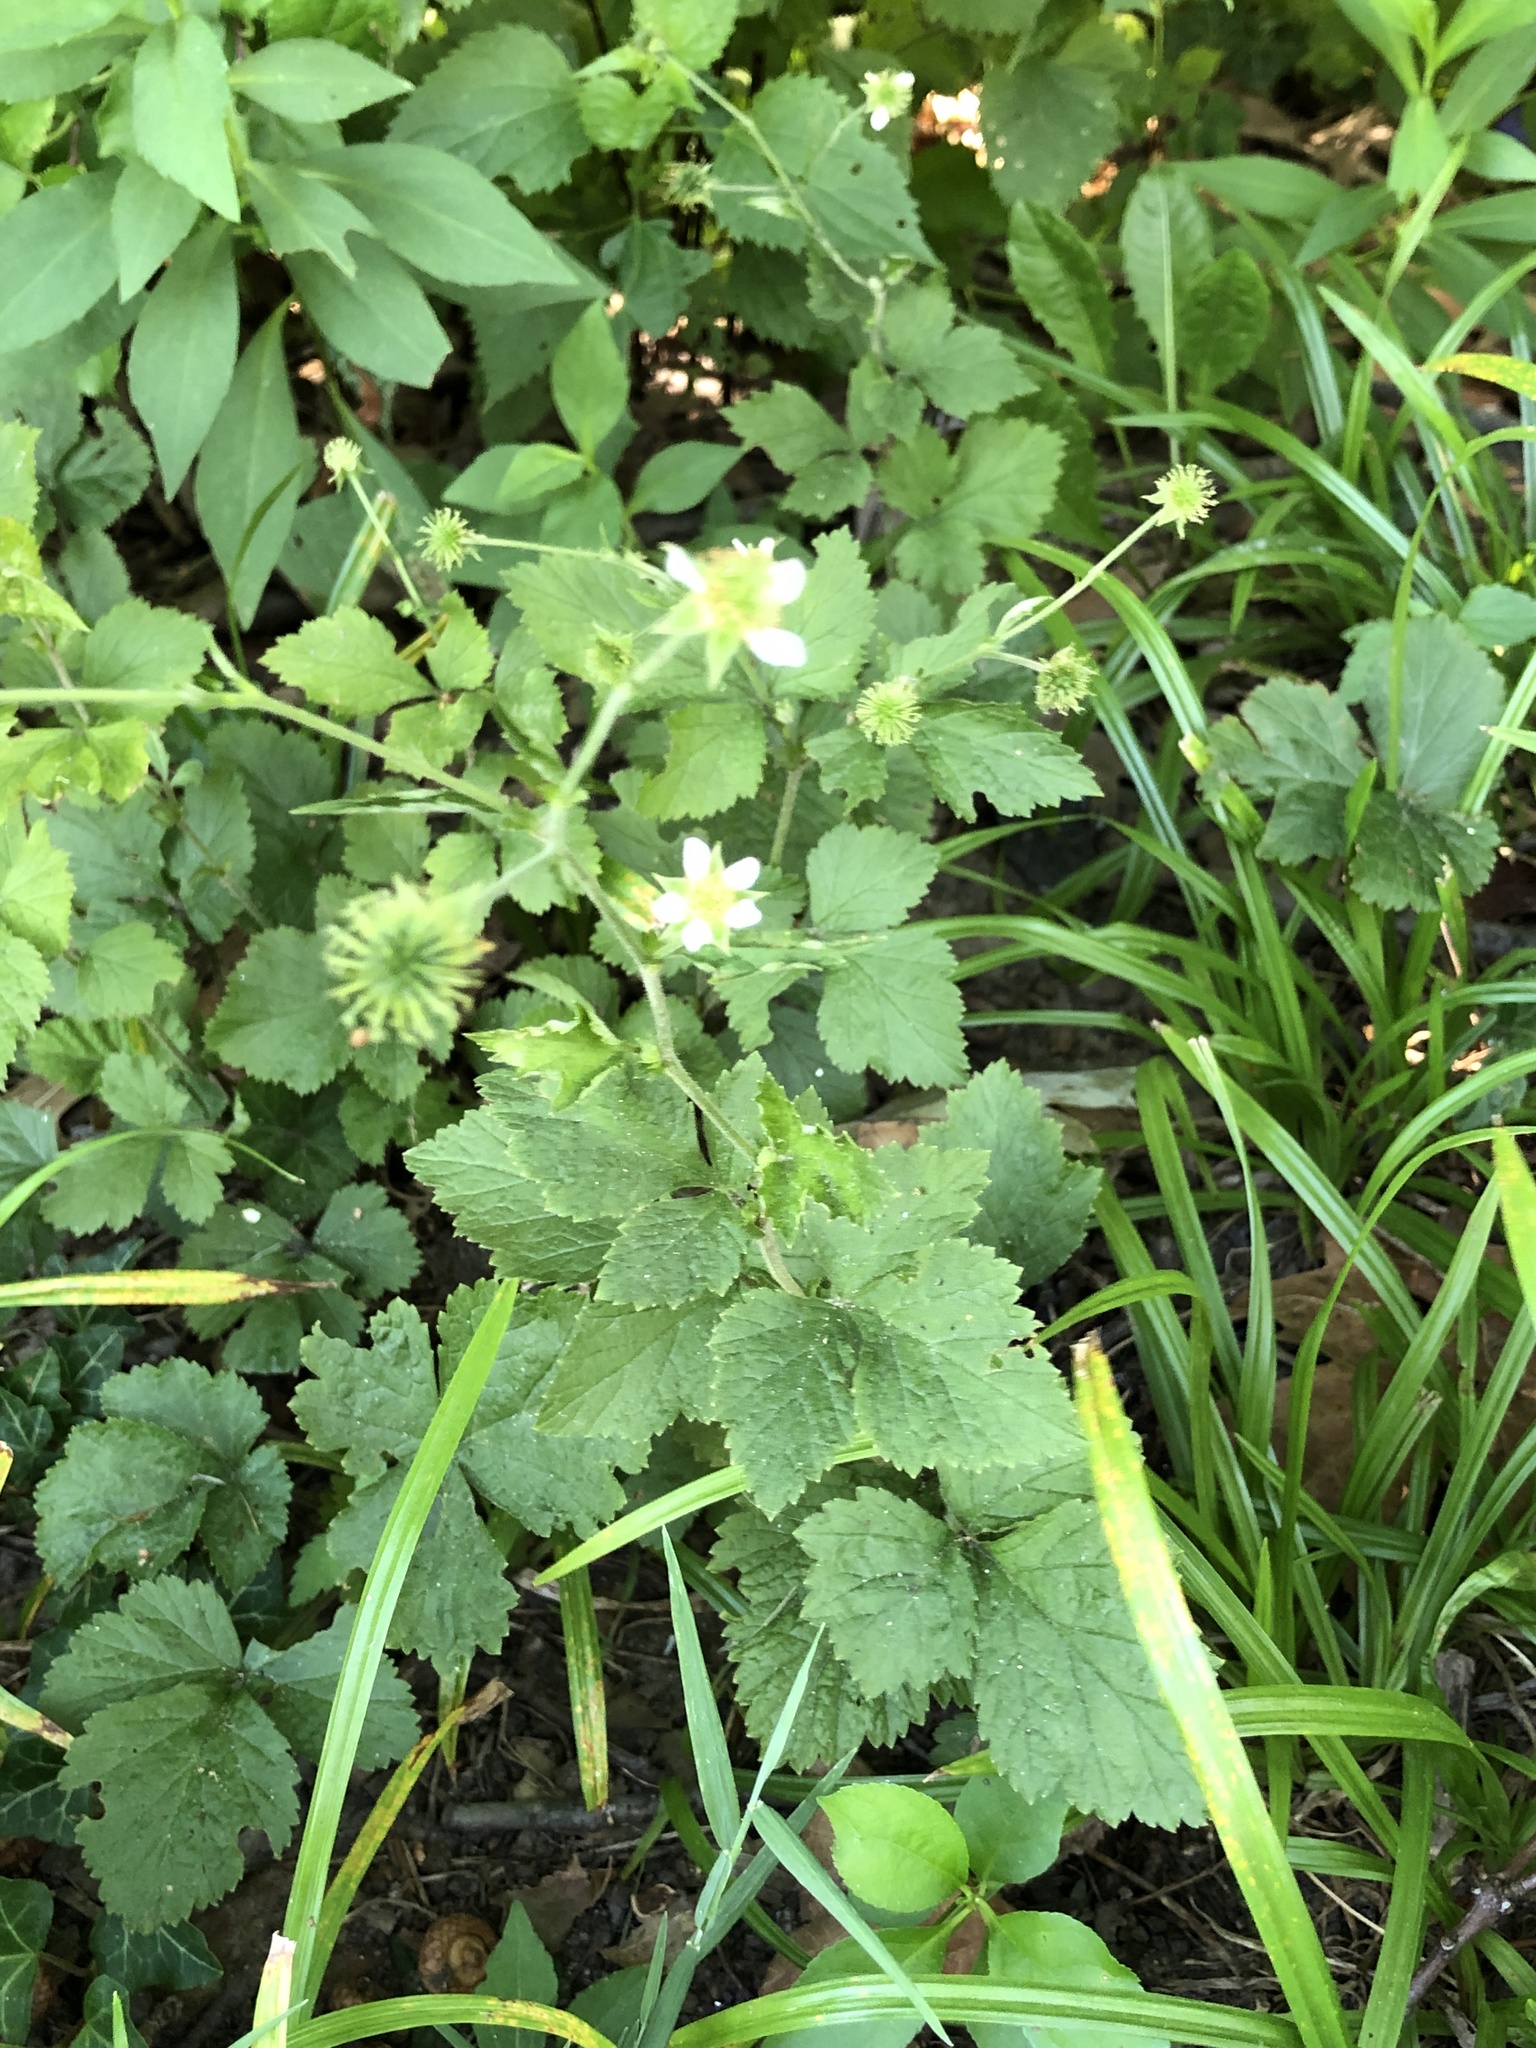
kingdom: Plantae
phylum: Tracheophyta
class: Magnoliopsida
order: Rosales
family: Rosaceae
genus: Geum
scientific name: Geum canadense
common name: White avens
